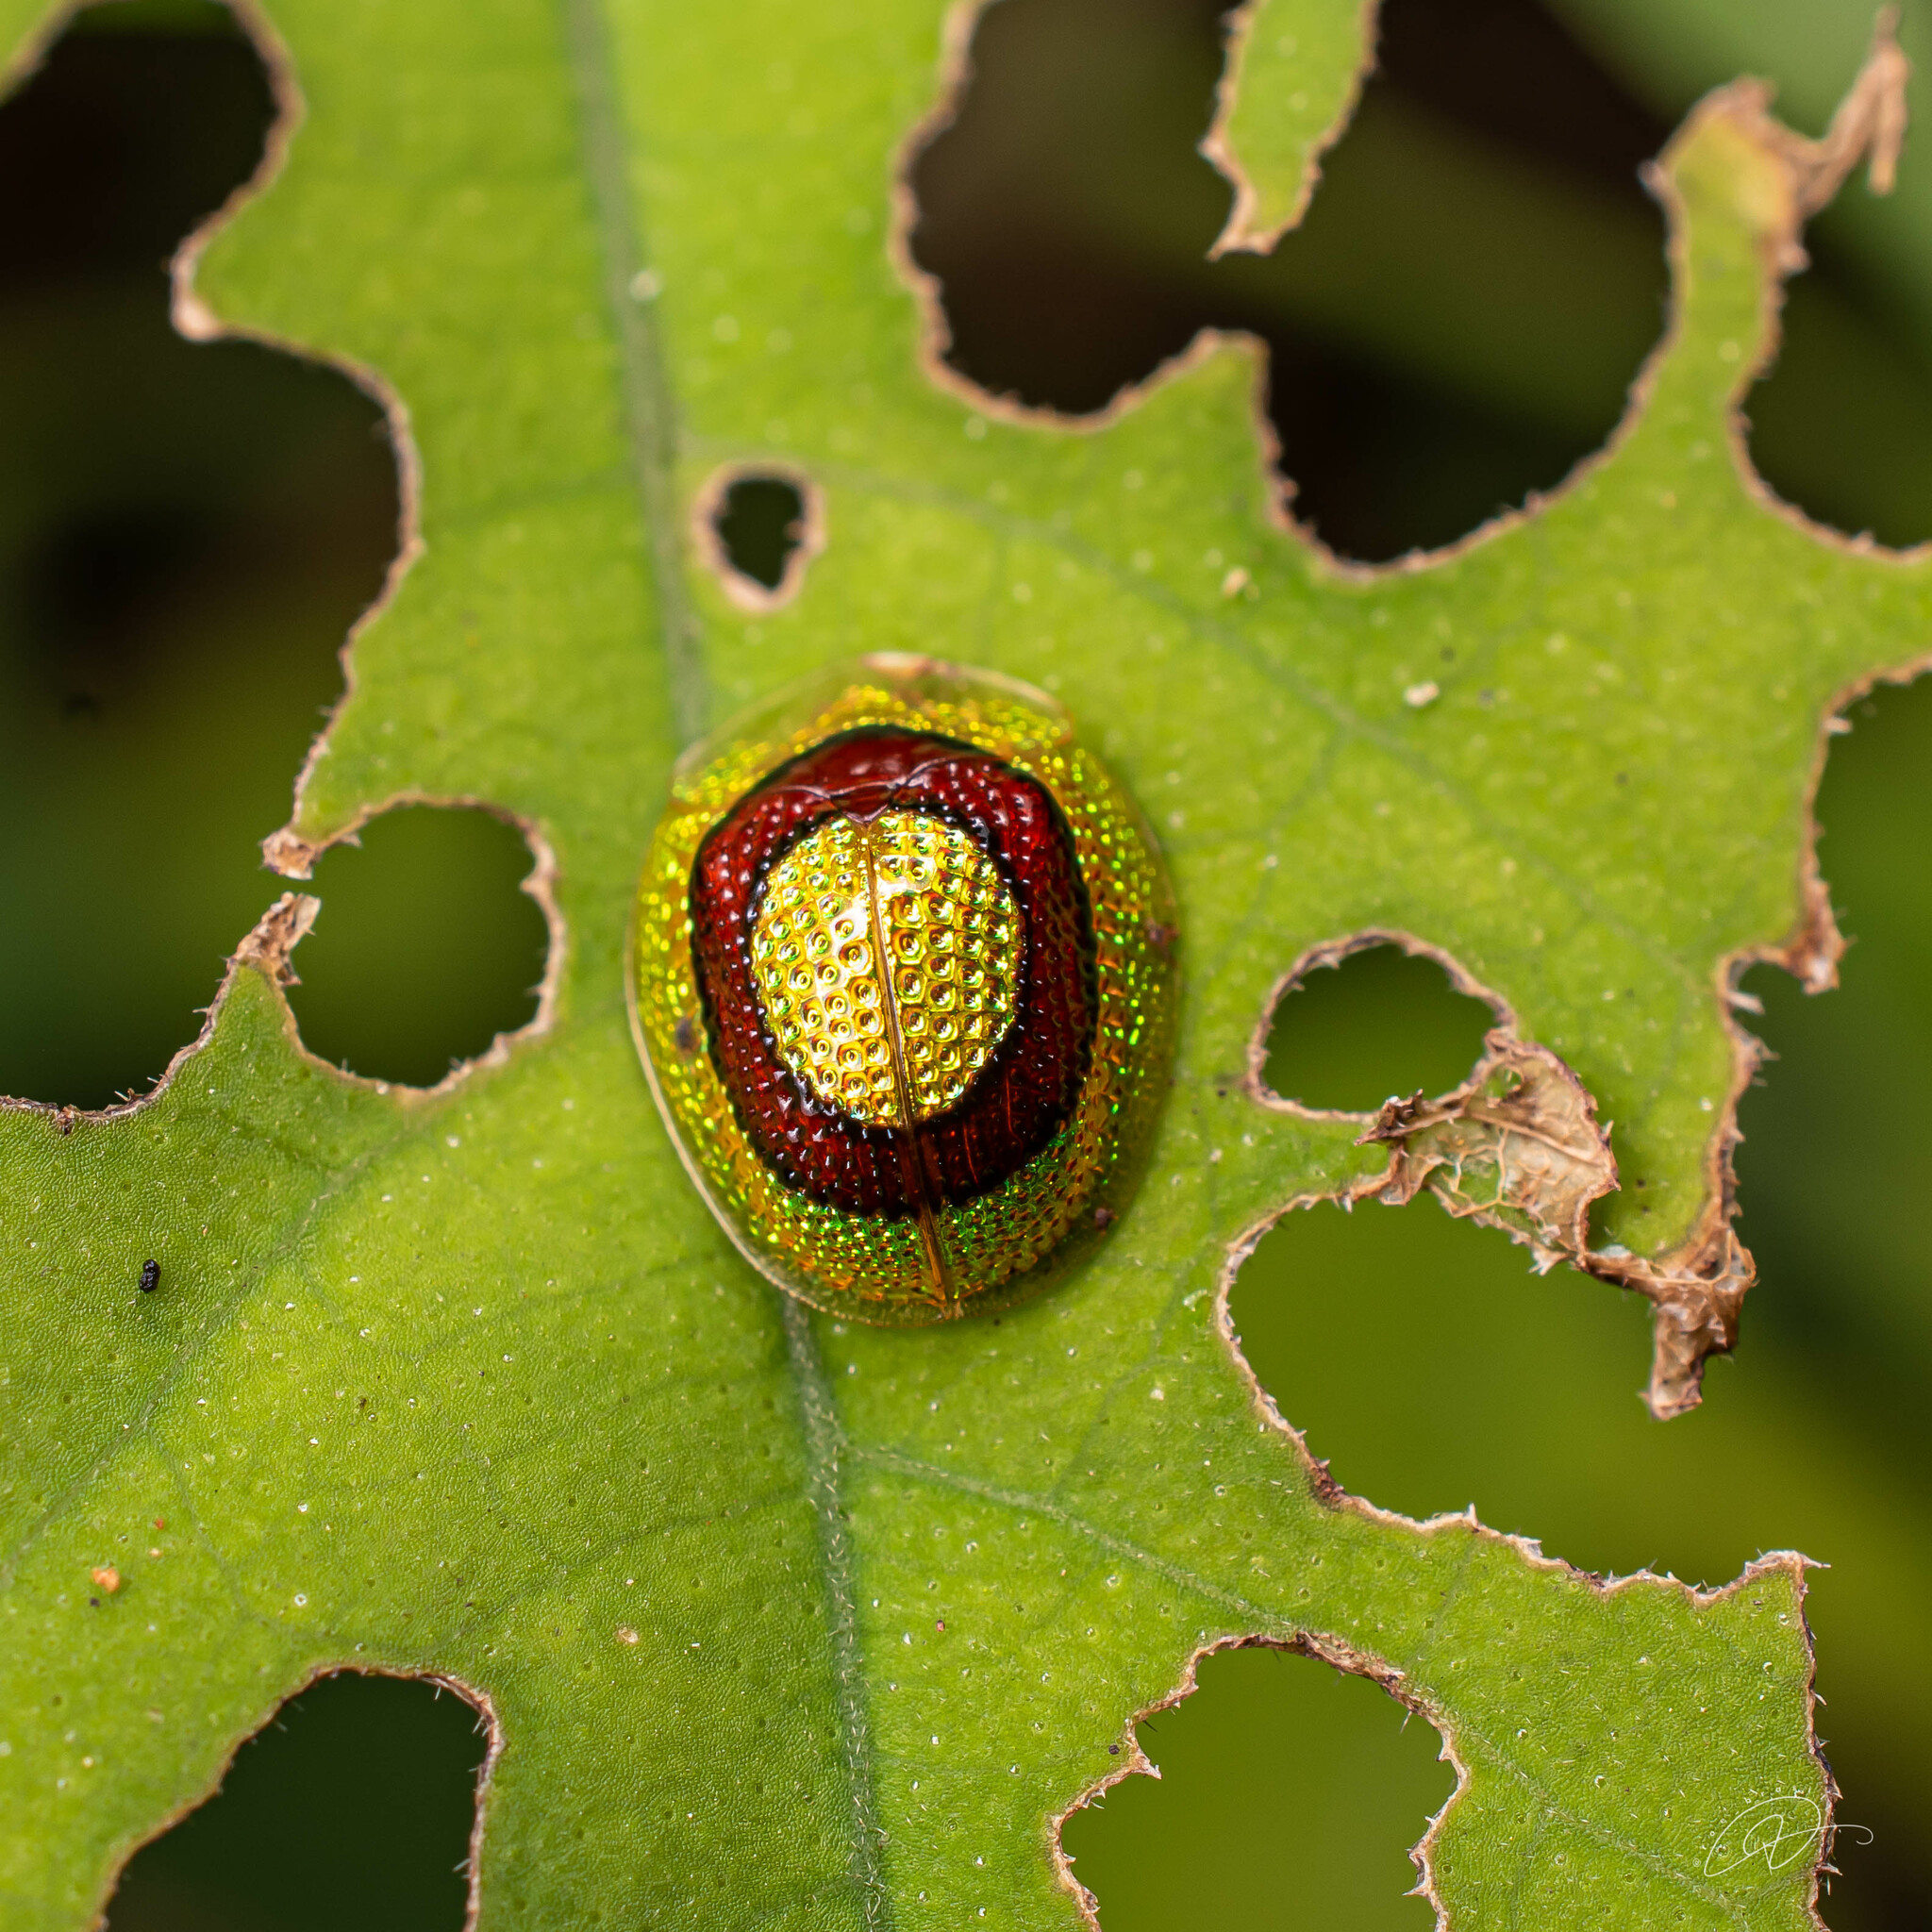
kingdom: Animalia
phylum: Arthropoda
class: Insecta
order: Coleoptera
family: Chrysomelidae
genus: Charidotis
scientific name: Charidotis consentanea
